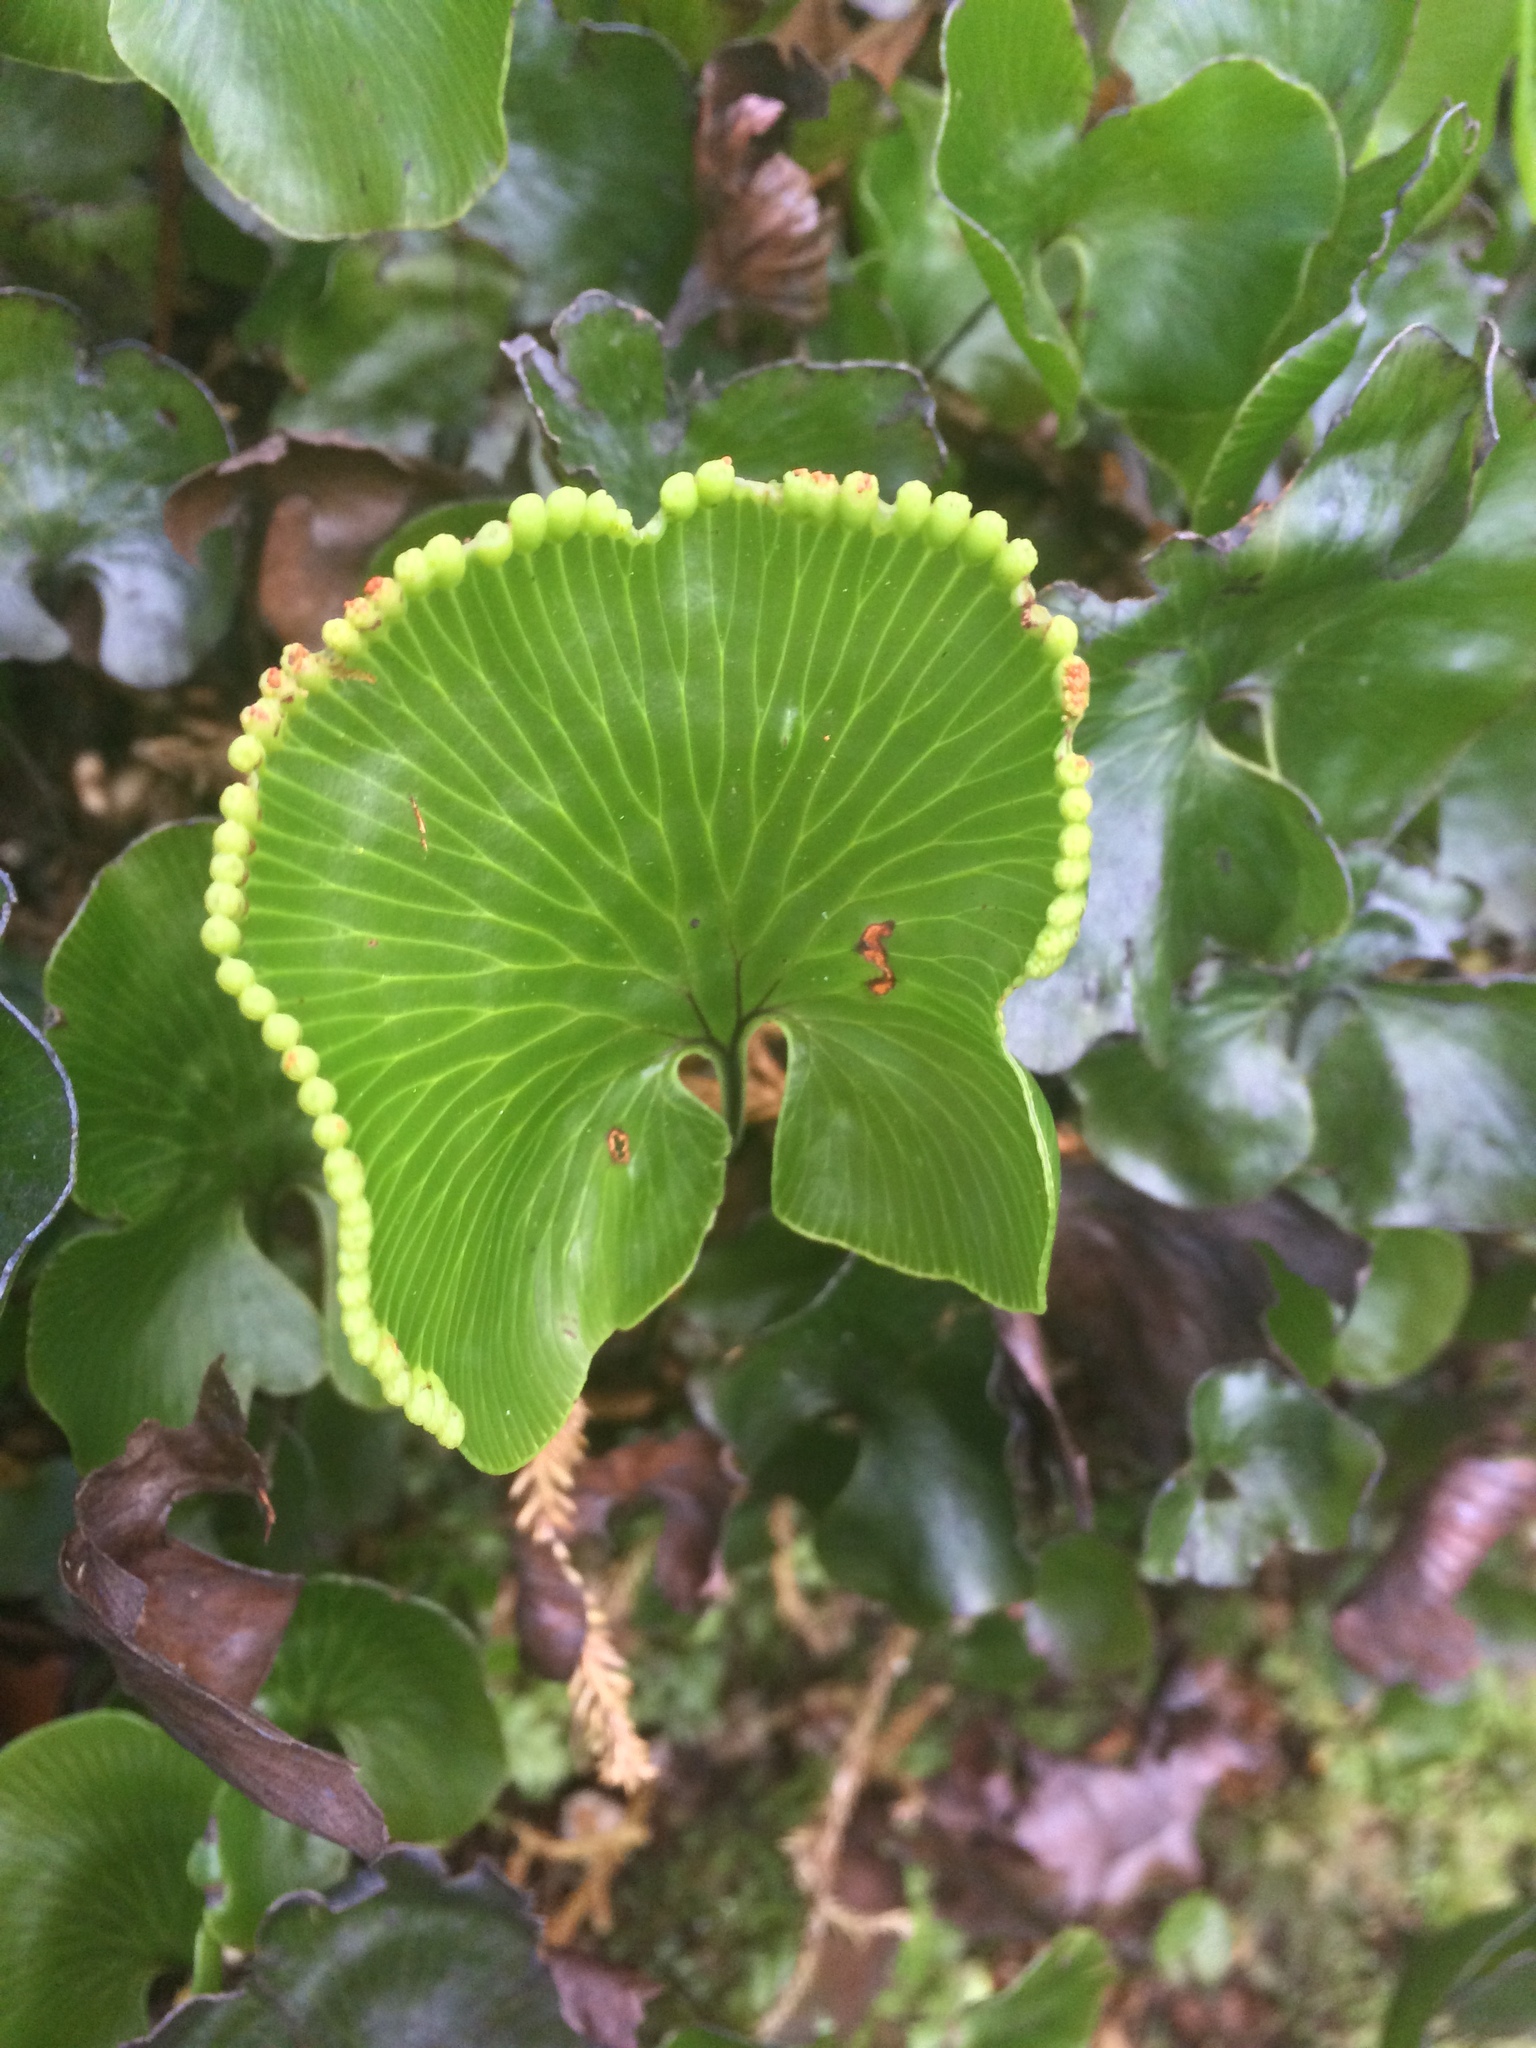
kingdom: Plantae
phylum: Tracheophyta
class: Polypodiopsida
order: Hymenophyllales
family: Hymenophyllaceae
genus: Hymenophyllum
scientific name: Hymenophyllum nephrophyllum
